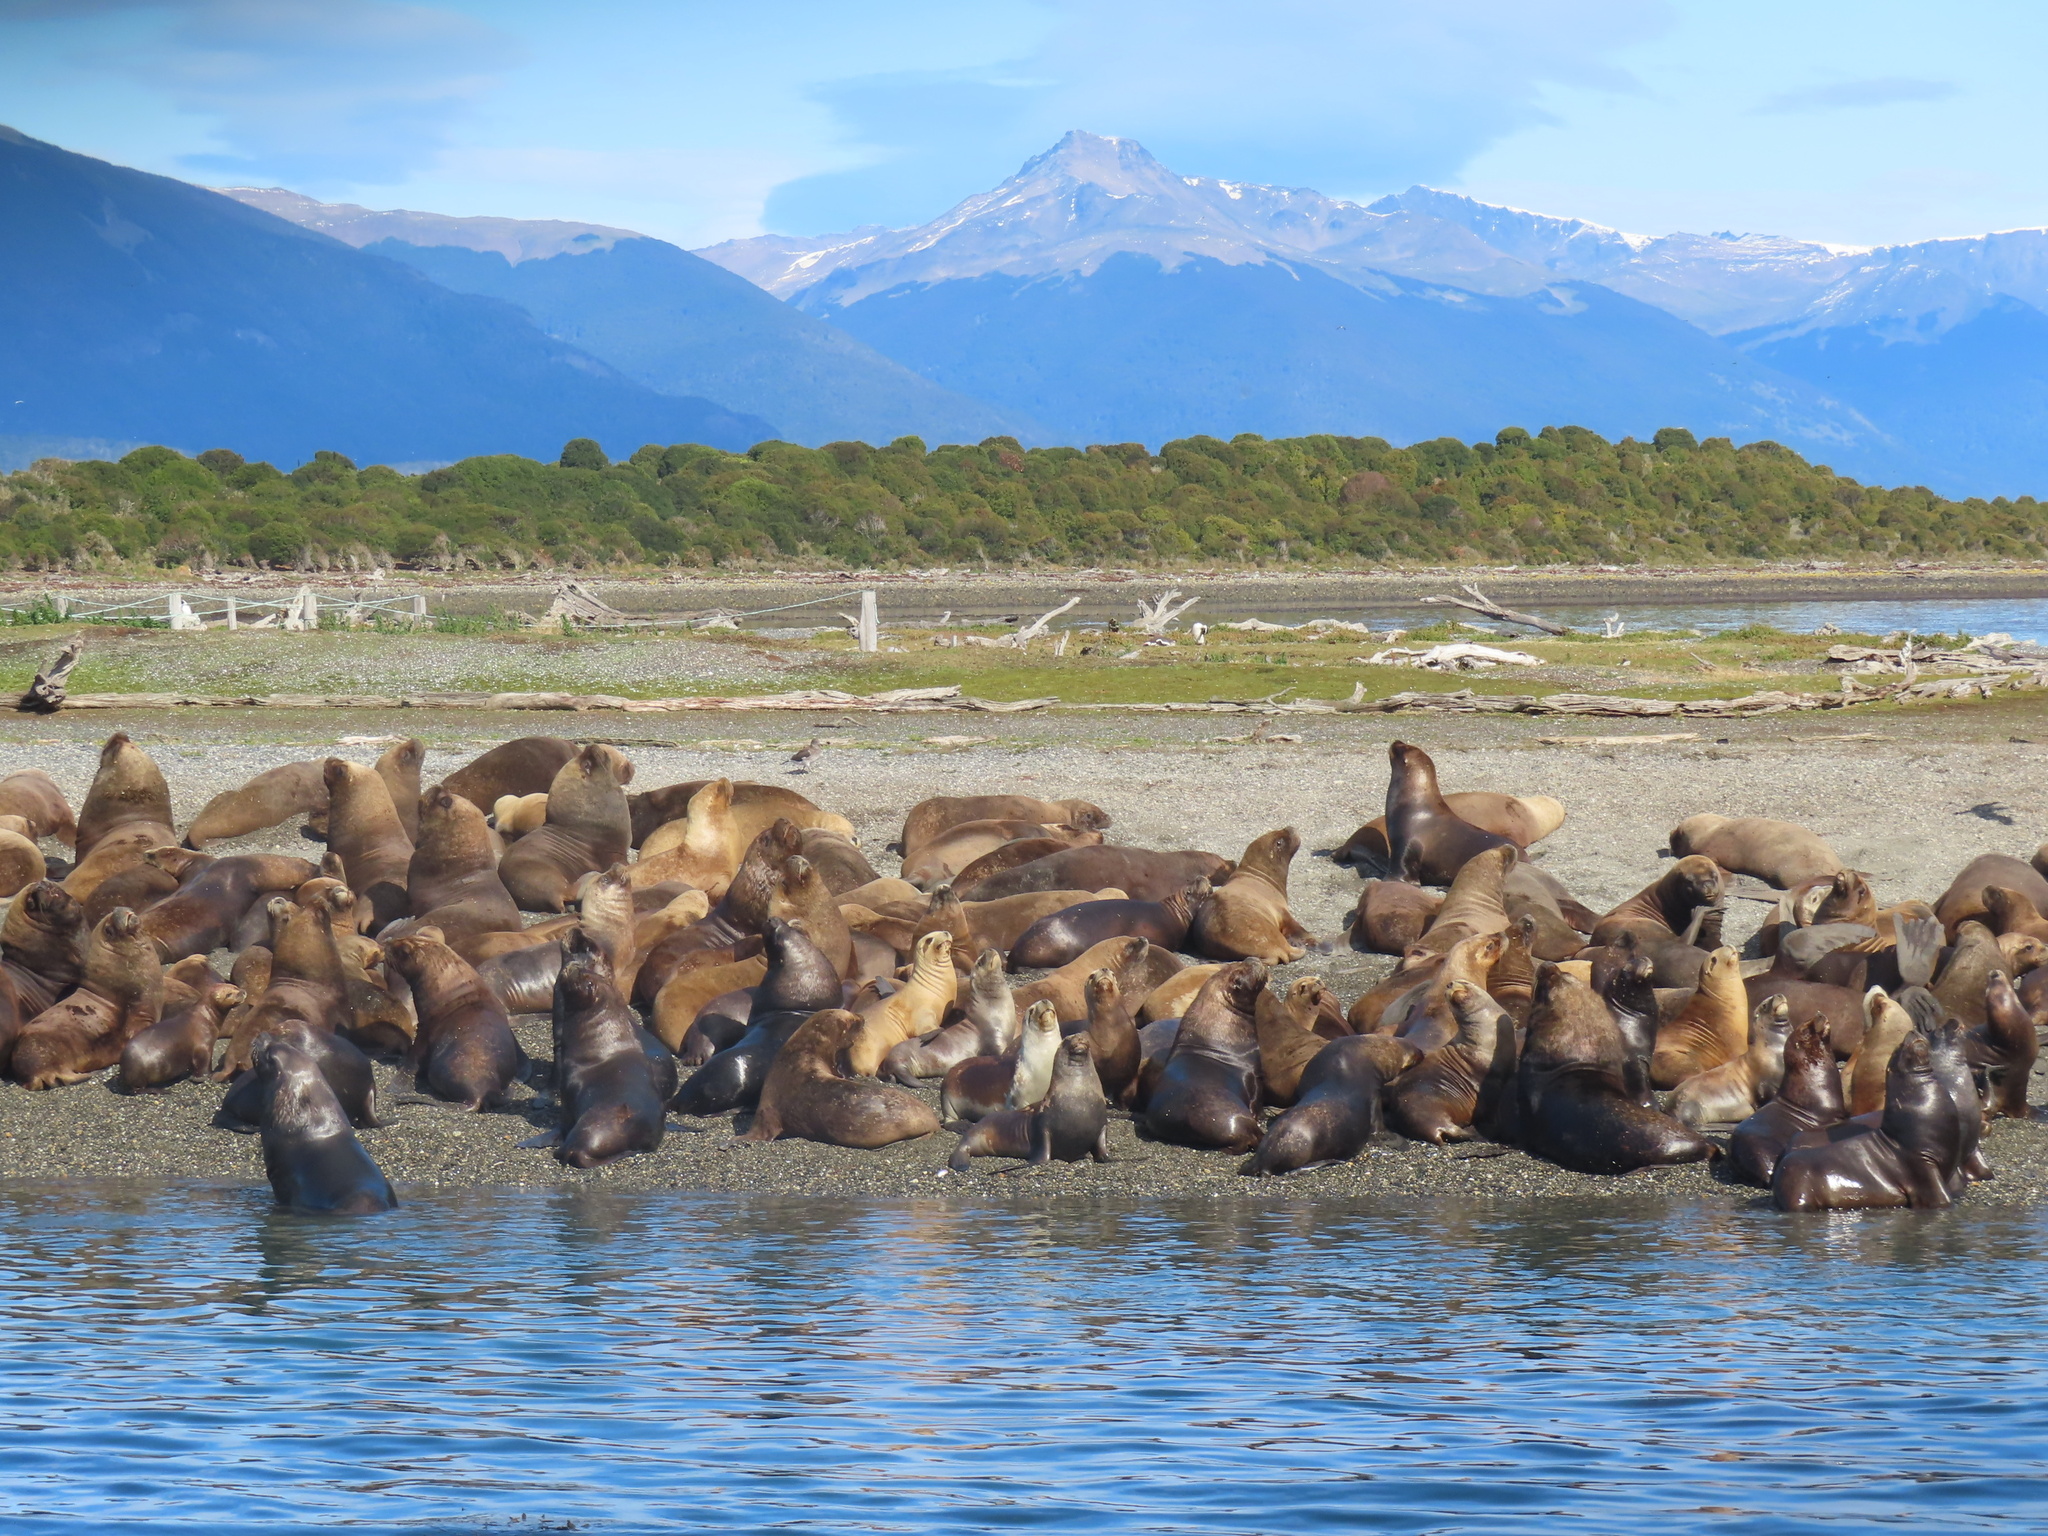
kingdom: Animalia
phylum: Chordata
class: Mammalia
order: Carnivora
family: Otariidae
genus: Otaria
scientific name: Otaria byronia
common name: South american sea lion
